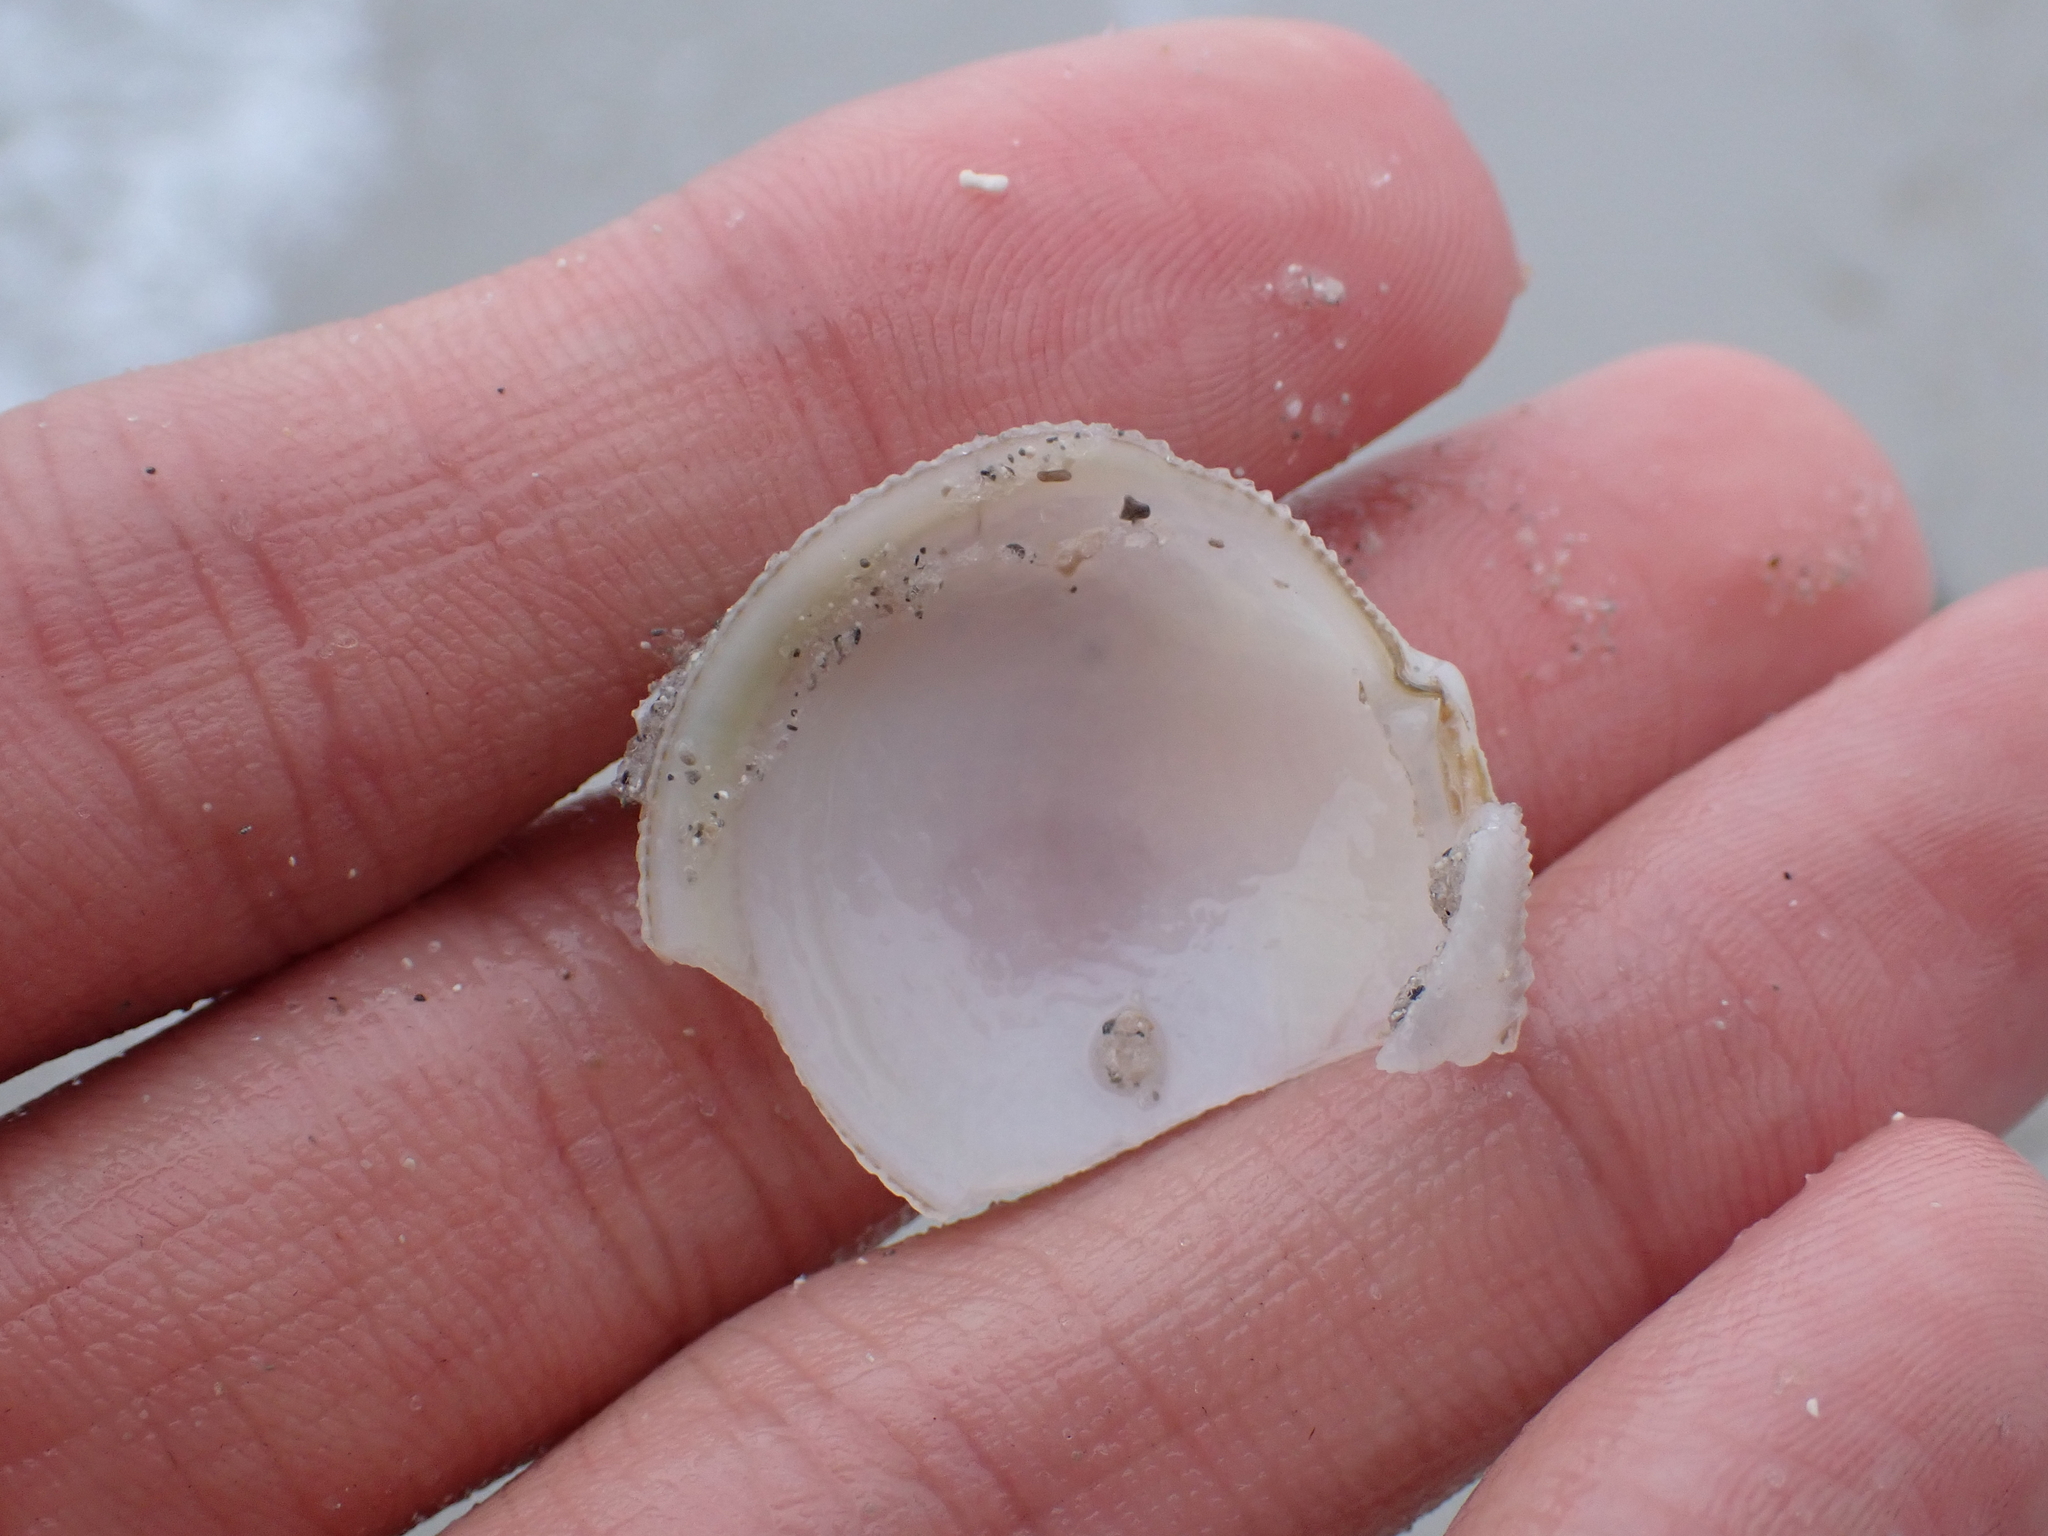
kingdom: Animalia
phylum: Mollusca
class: Bivalvia
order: Lucinida
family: Lucinidae
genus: Divalinga
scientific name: Divalinga quadrisulcata
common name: Cross-hatched lucine
